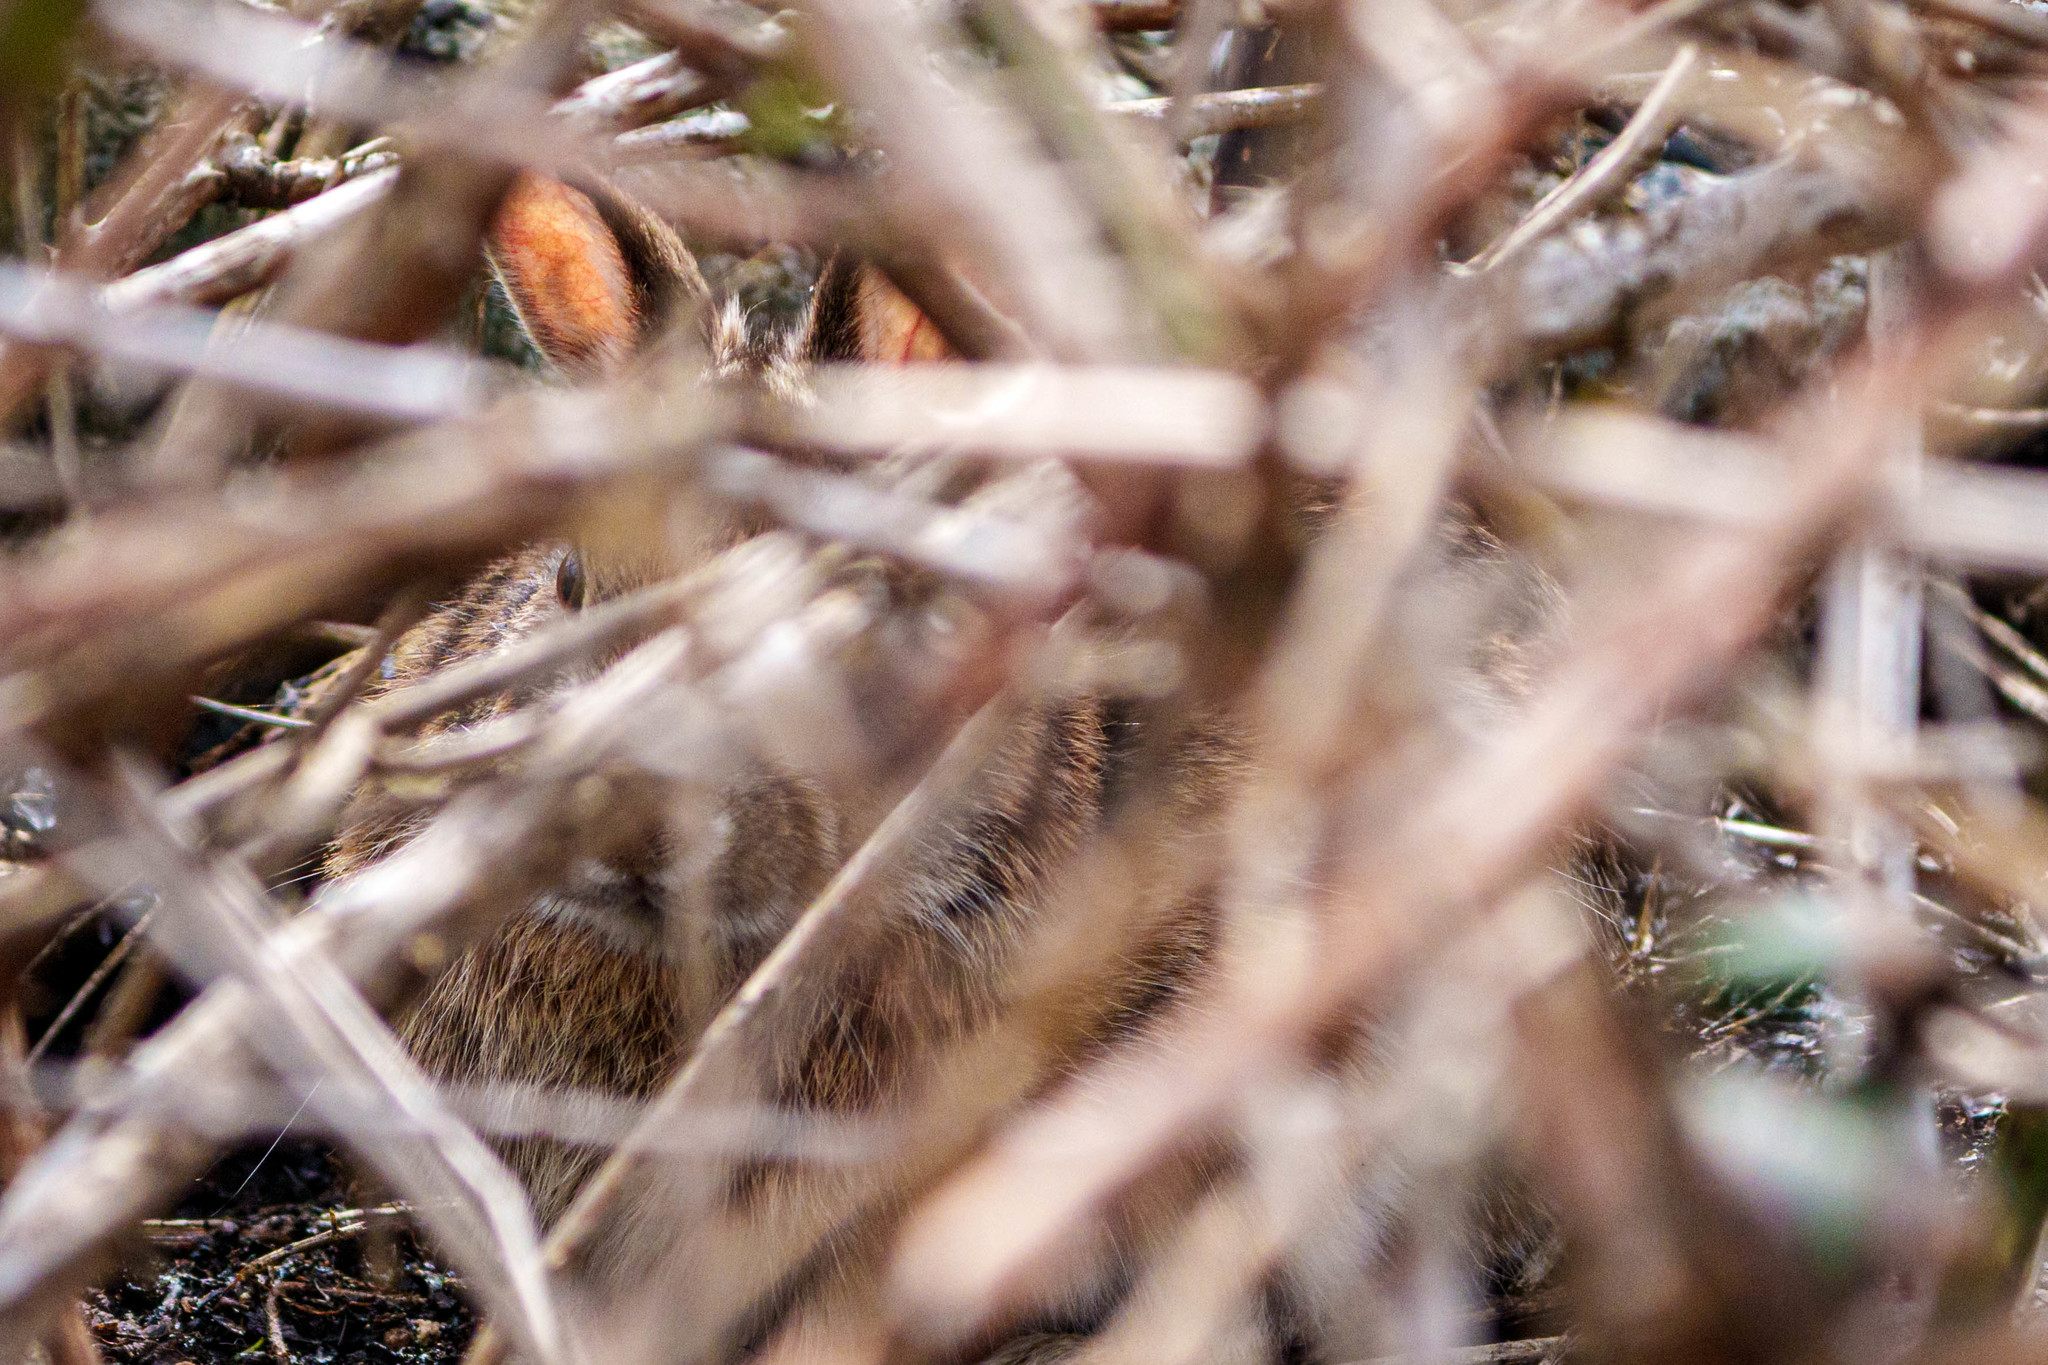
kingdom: Animalia
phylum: Chordata
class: Mammalia
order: Lagomorpha
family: Leporidae
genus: Sylvilagus
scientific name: Sylvilagus floridanus
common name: Eastern cottontail
